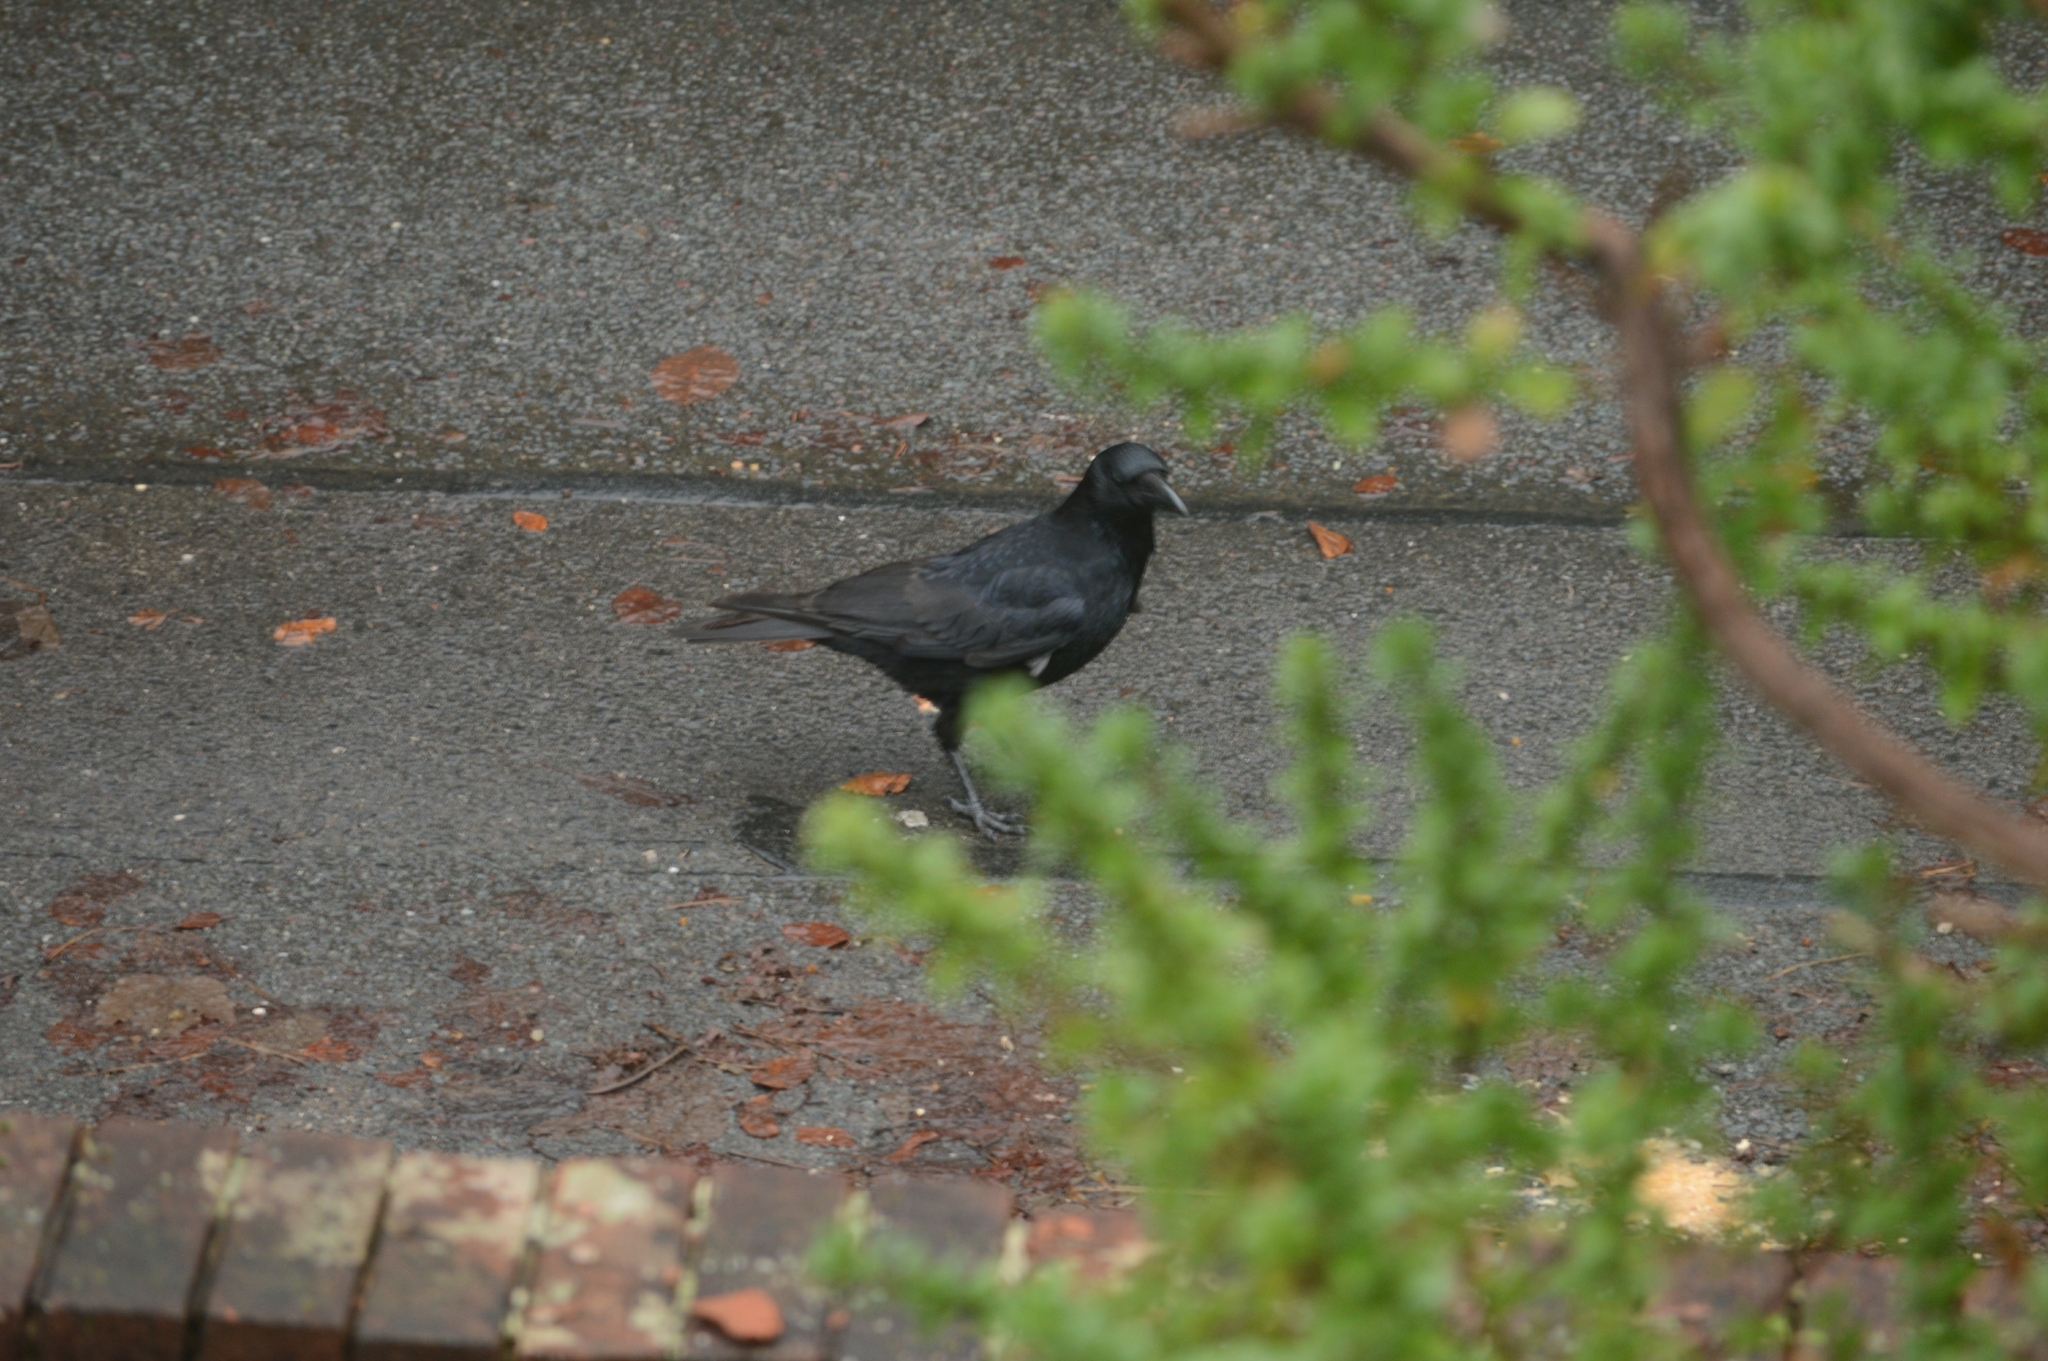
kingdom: Animalia
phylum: Chordata
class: Aves
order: Passeriformes
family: Corvidae
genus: Corvus
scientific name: Corvus corone
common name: Carrion crow
